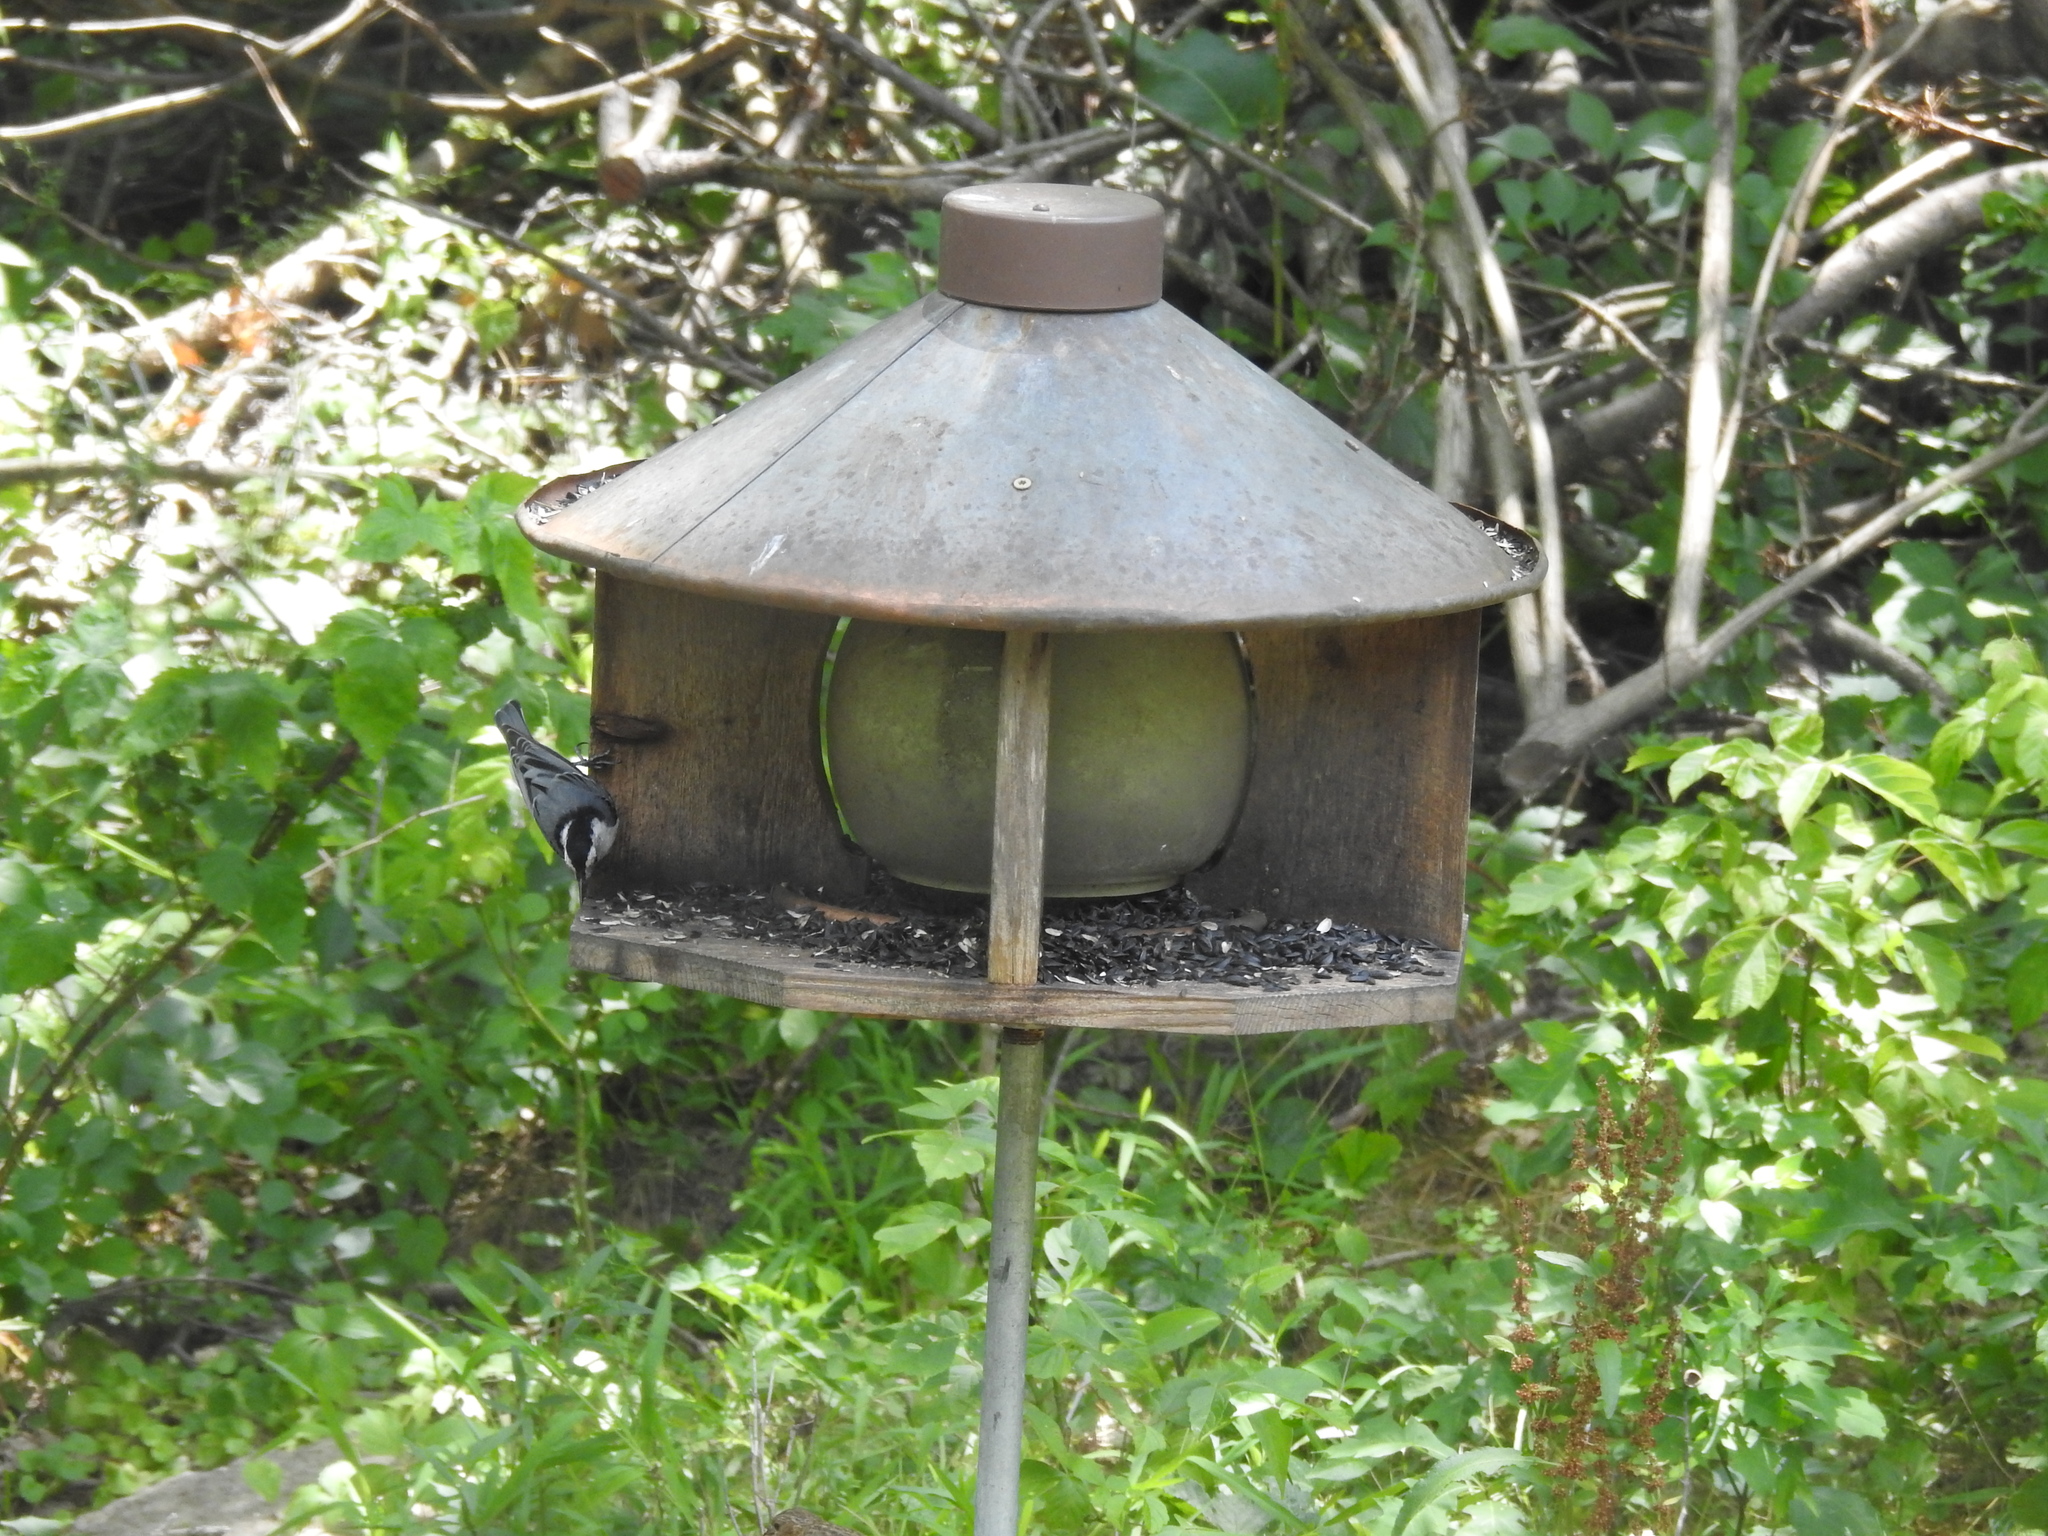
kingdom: Animalia
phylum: Chordata
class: Aves
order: Passeriformes
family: Sittidae
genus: Sitta
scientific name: Sitta carolinensis
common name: White-breasted nuthatch
